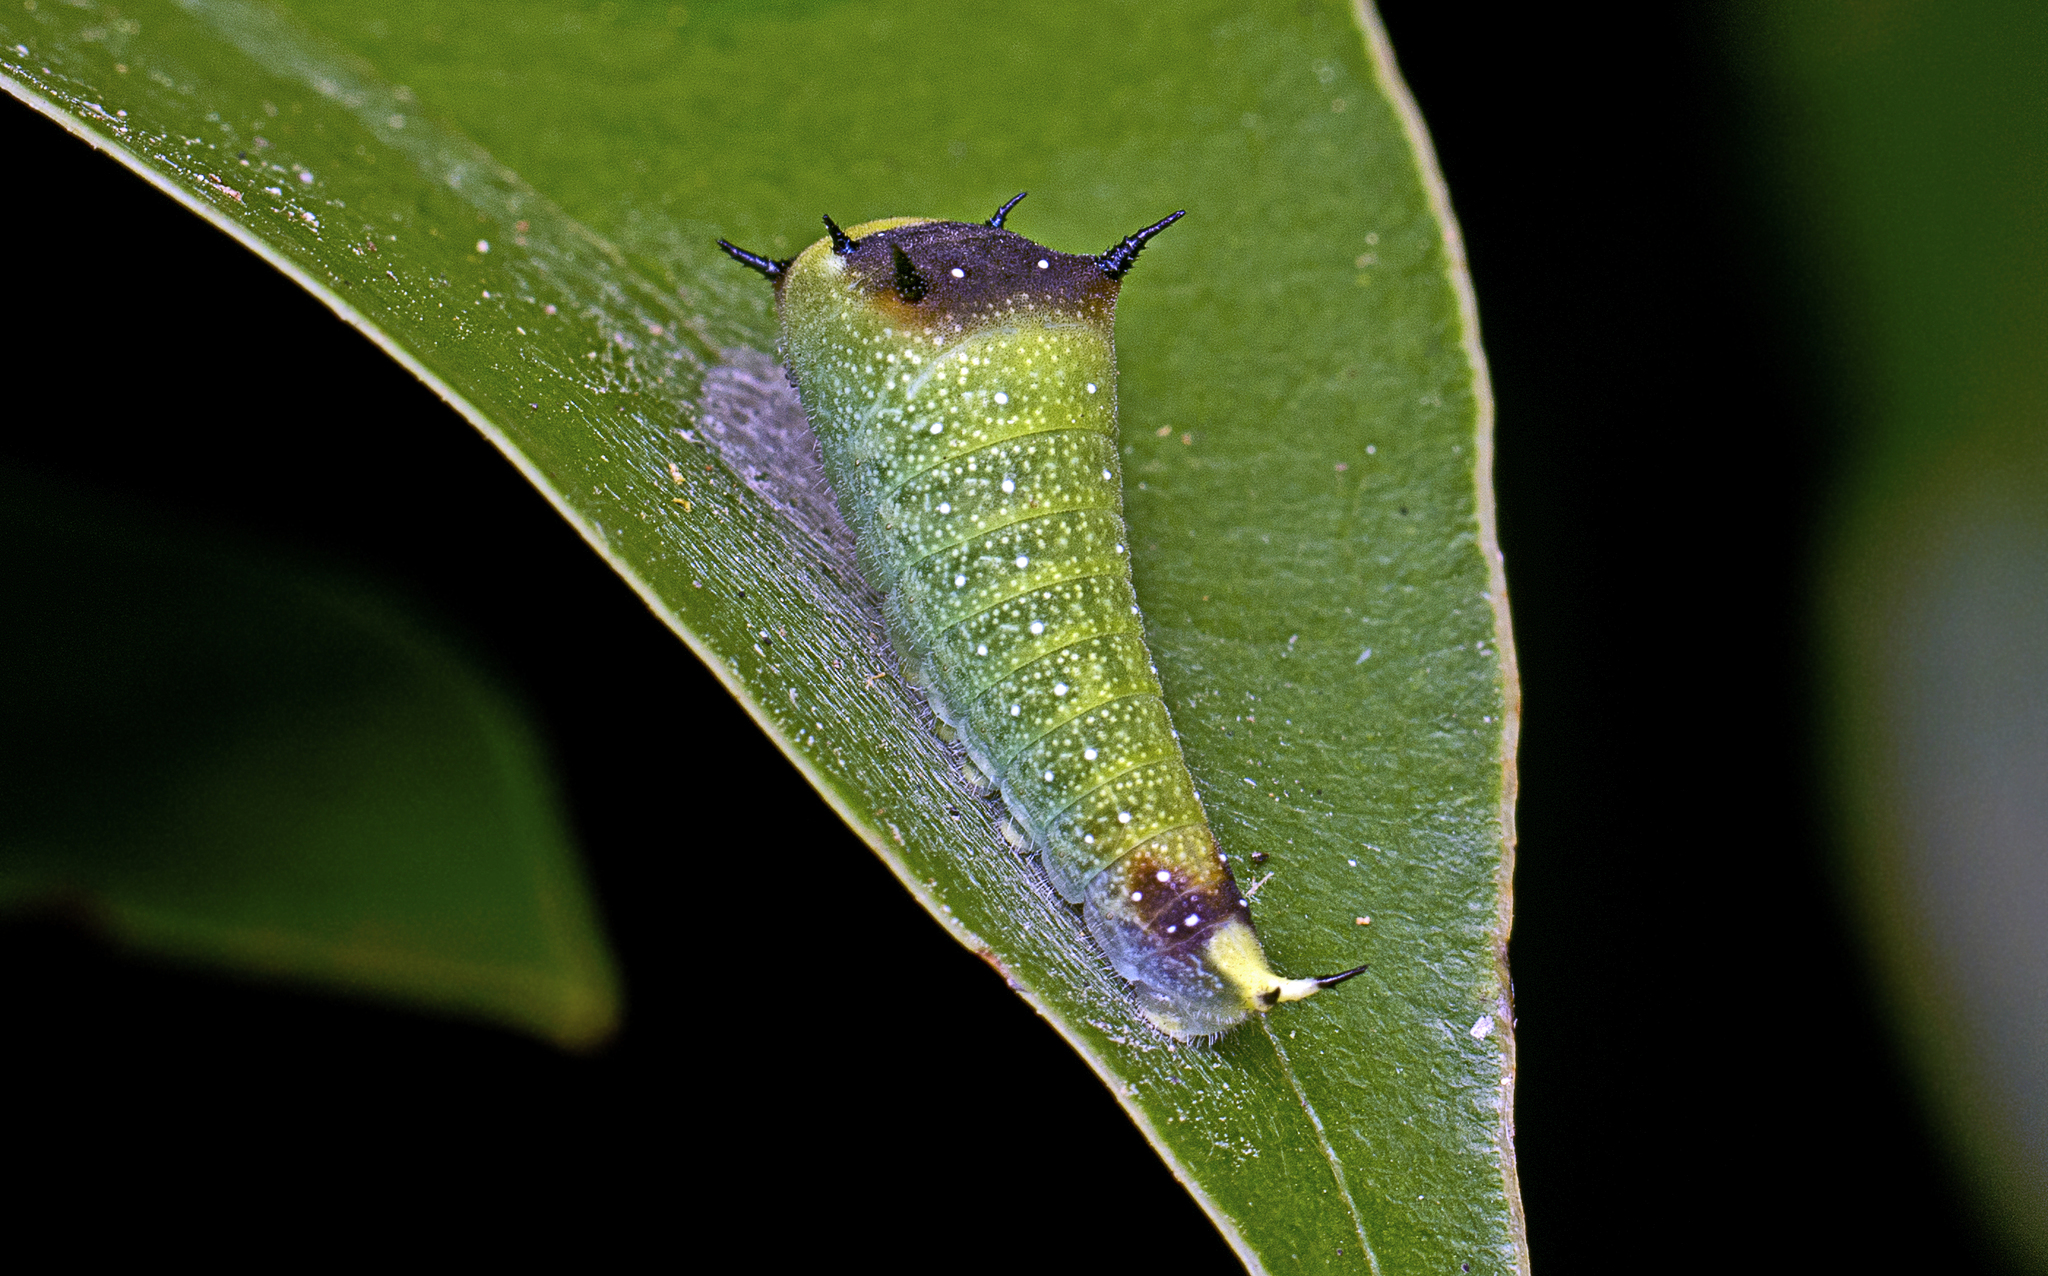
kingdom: Animalia
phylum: Arthropoda
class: Insecta
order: Lepidoptera
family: Papilionidae
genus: Graphium
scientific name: Graphium macleayanus
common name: Macleay's swallowtail
